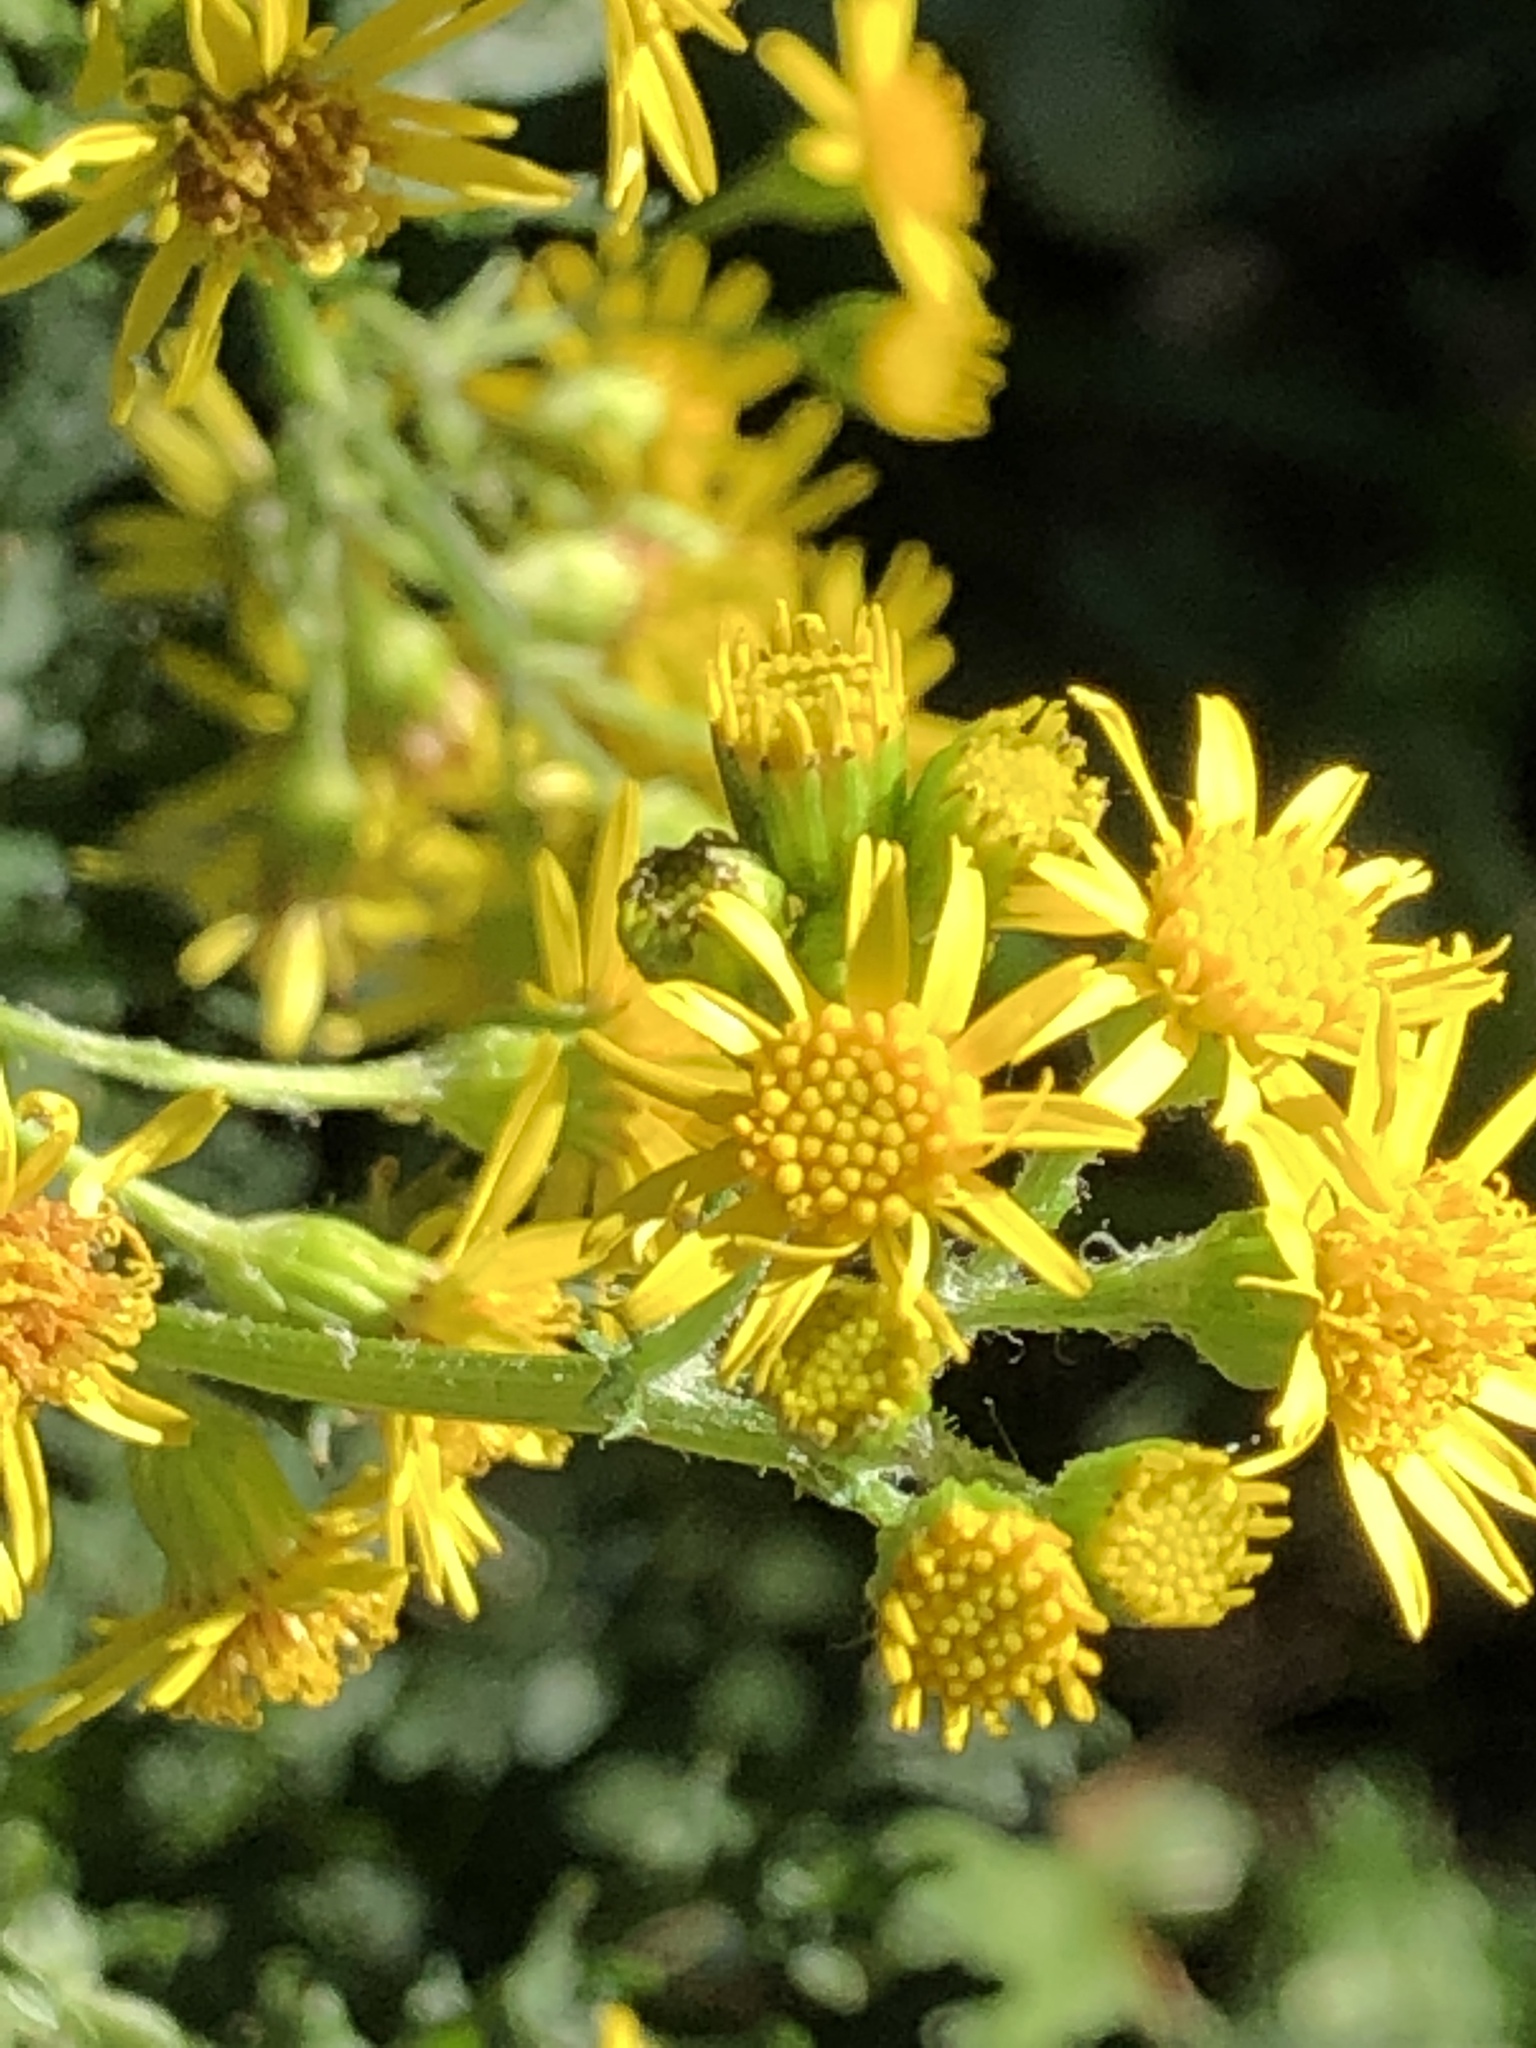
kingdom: Plantae
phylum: Tracheophyta
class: Magnoliopsida
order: Asterales
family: Asteraceae
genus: Jacobaea
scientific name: Jacobaea vulgaris
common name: Stinking willie
